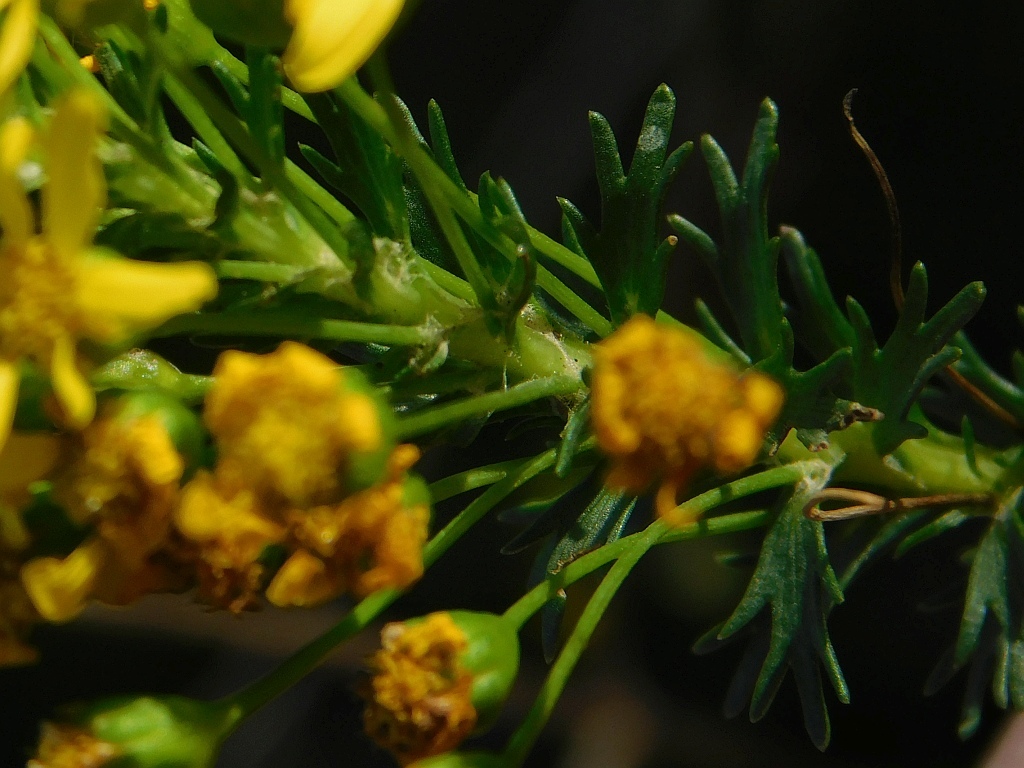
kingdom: Plantae
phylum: Tracheophyta
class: Magnoliopsida
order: Asterales
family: Asteraceae
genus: Euryops
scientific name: Euryops virgineus
